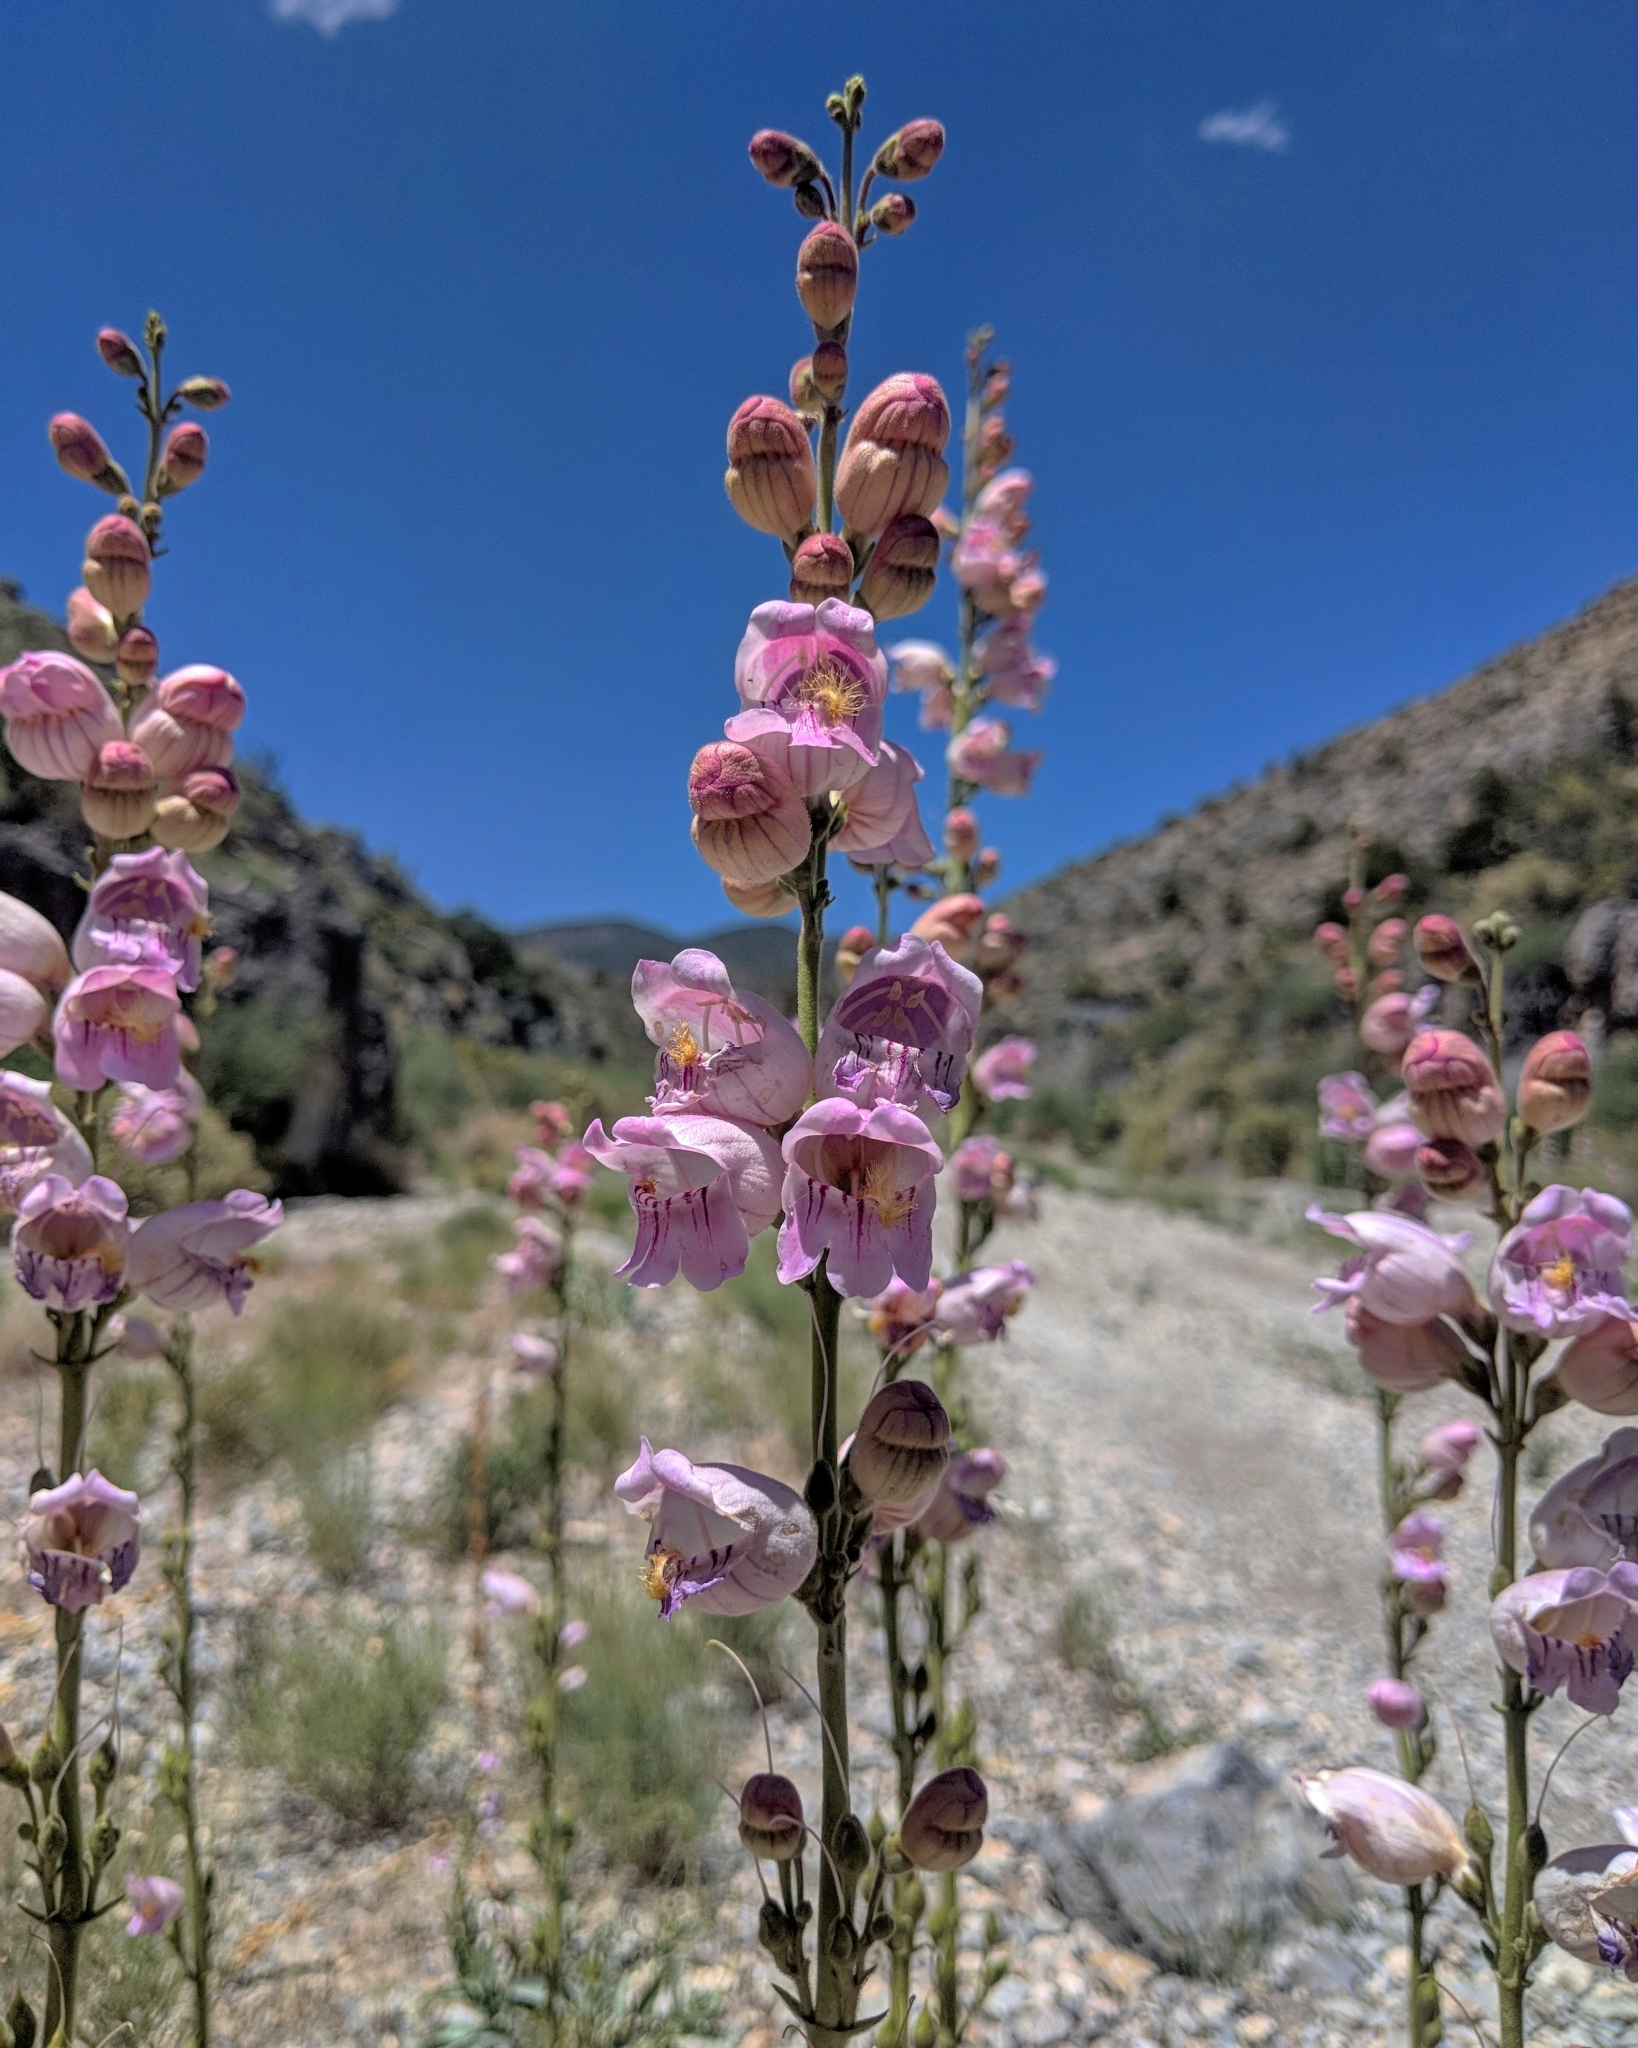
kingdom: Plantae
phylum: Tracheophyta
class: Magnoliopsida
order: Lamiales
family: Plantaginaceae
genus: Penstemon
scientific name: Penstemon palmeri
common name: Palmer penstemon
